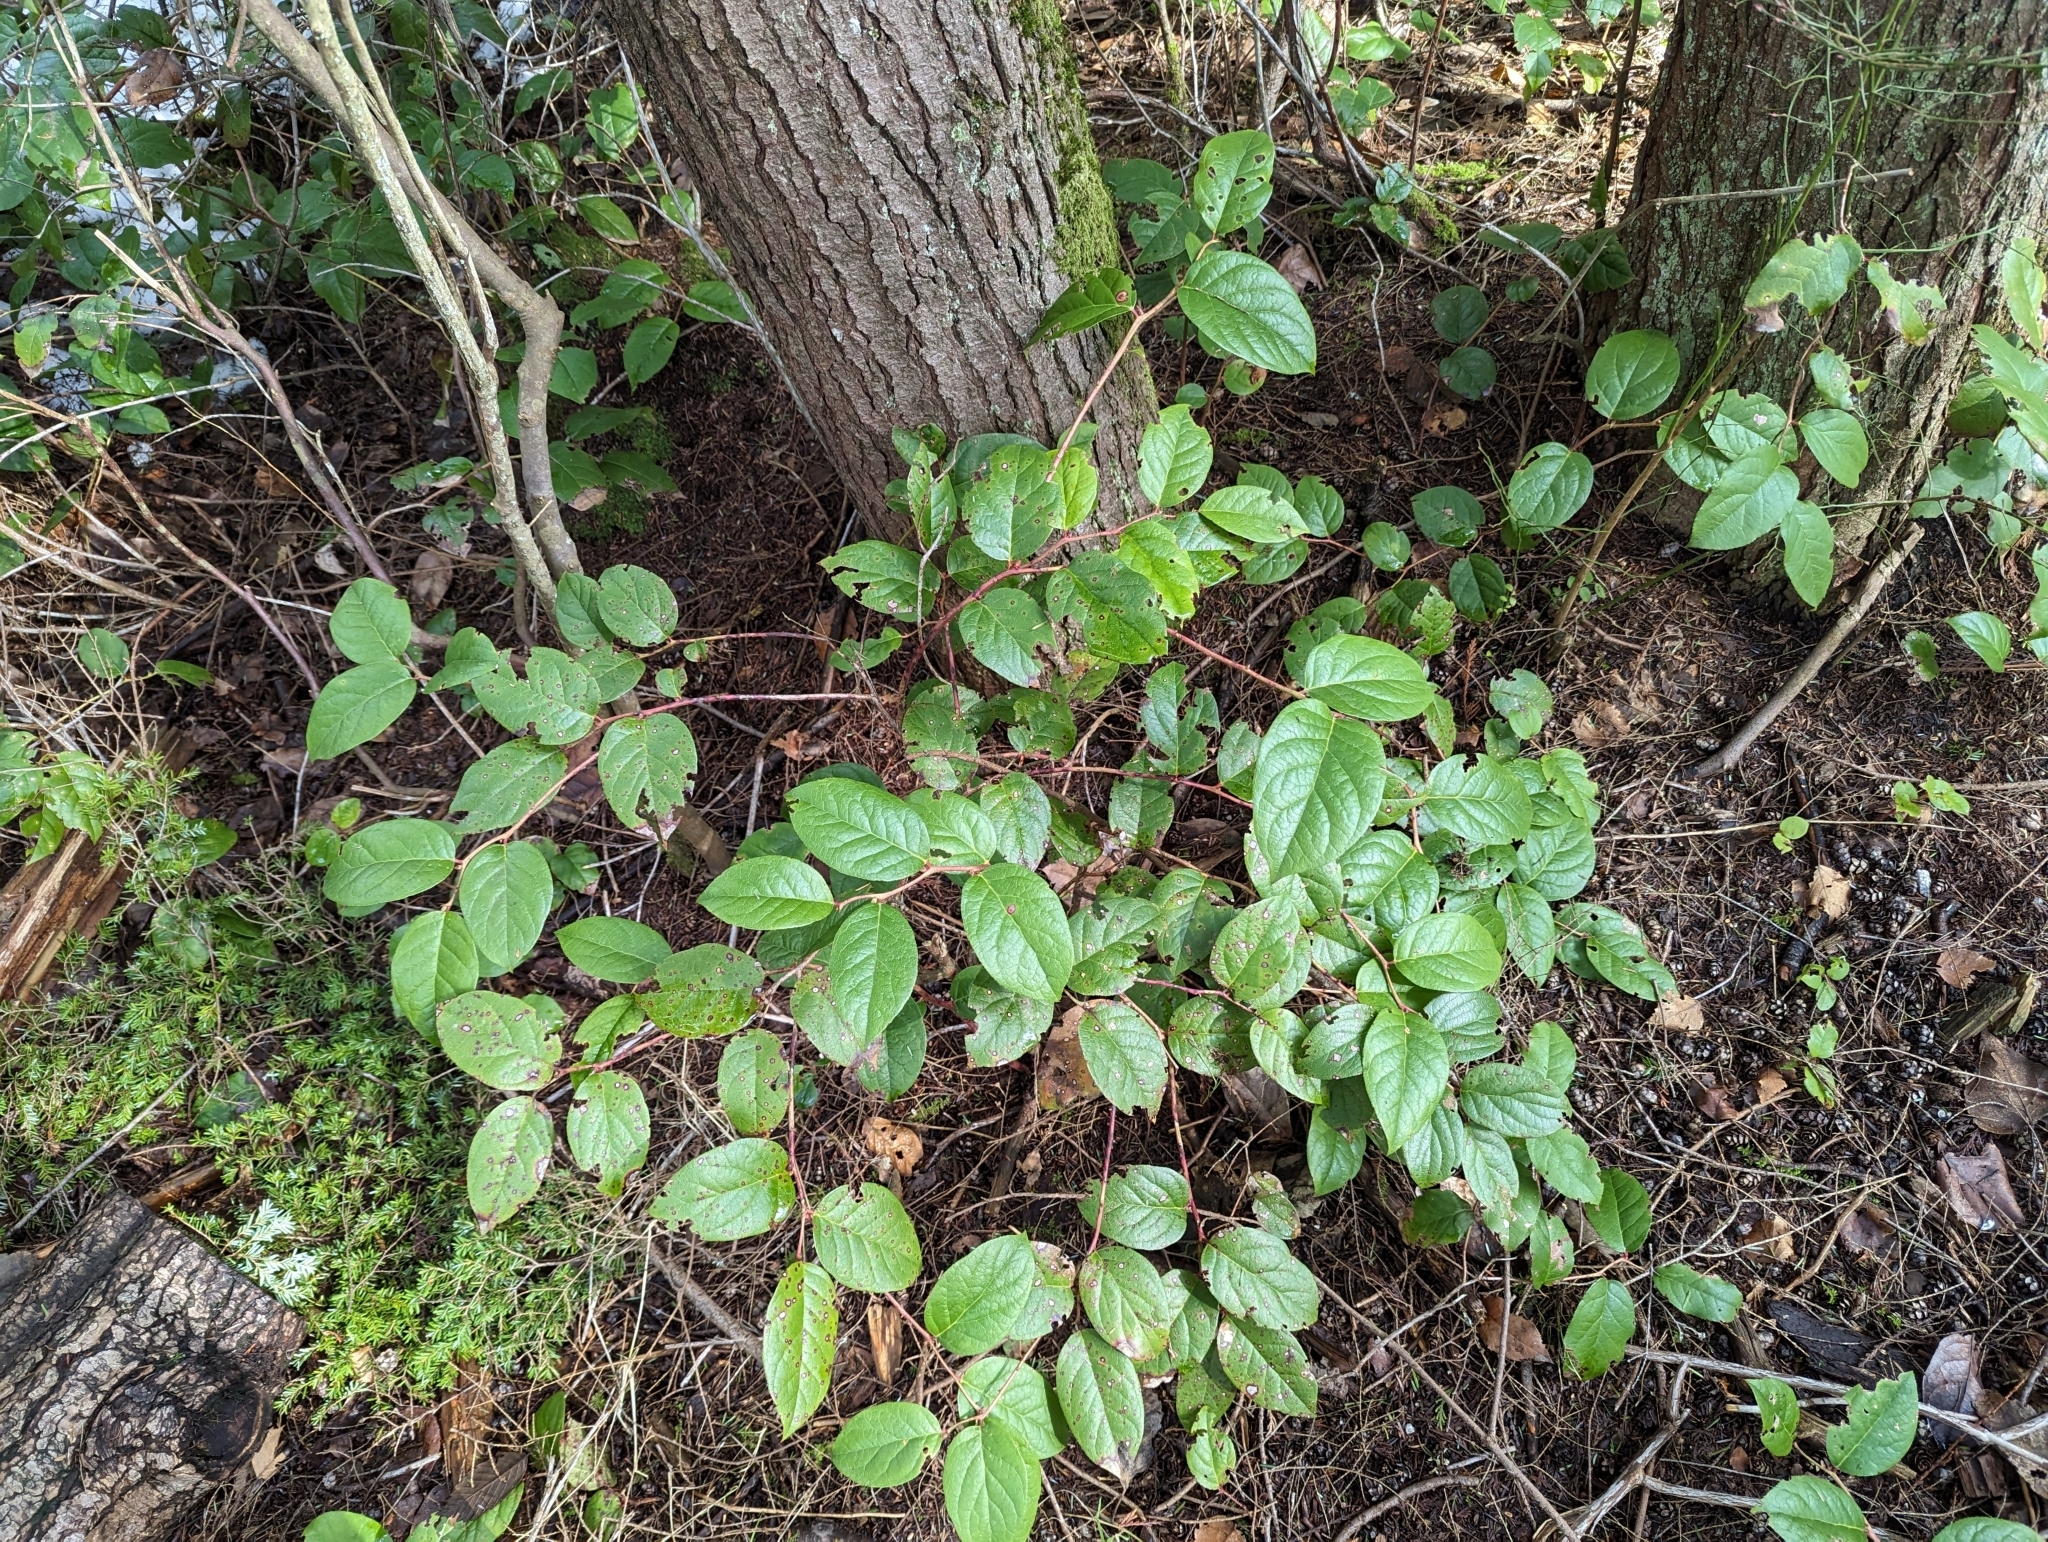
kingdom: Plantae
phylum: Tracheophyta
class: Magnoliopsida
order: Ericales
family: Ericaceae
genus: Gaultheria
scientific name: Gaultheria shallon
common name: Shallon
